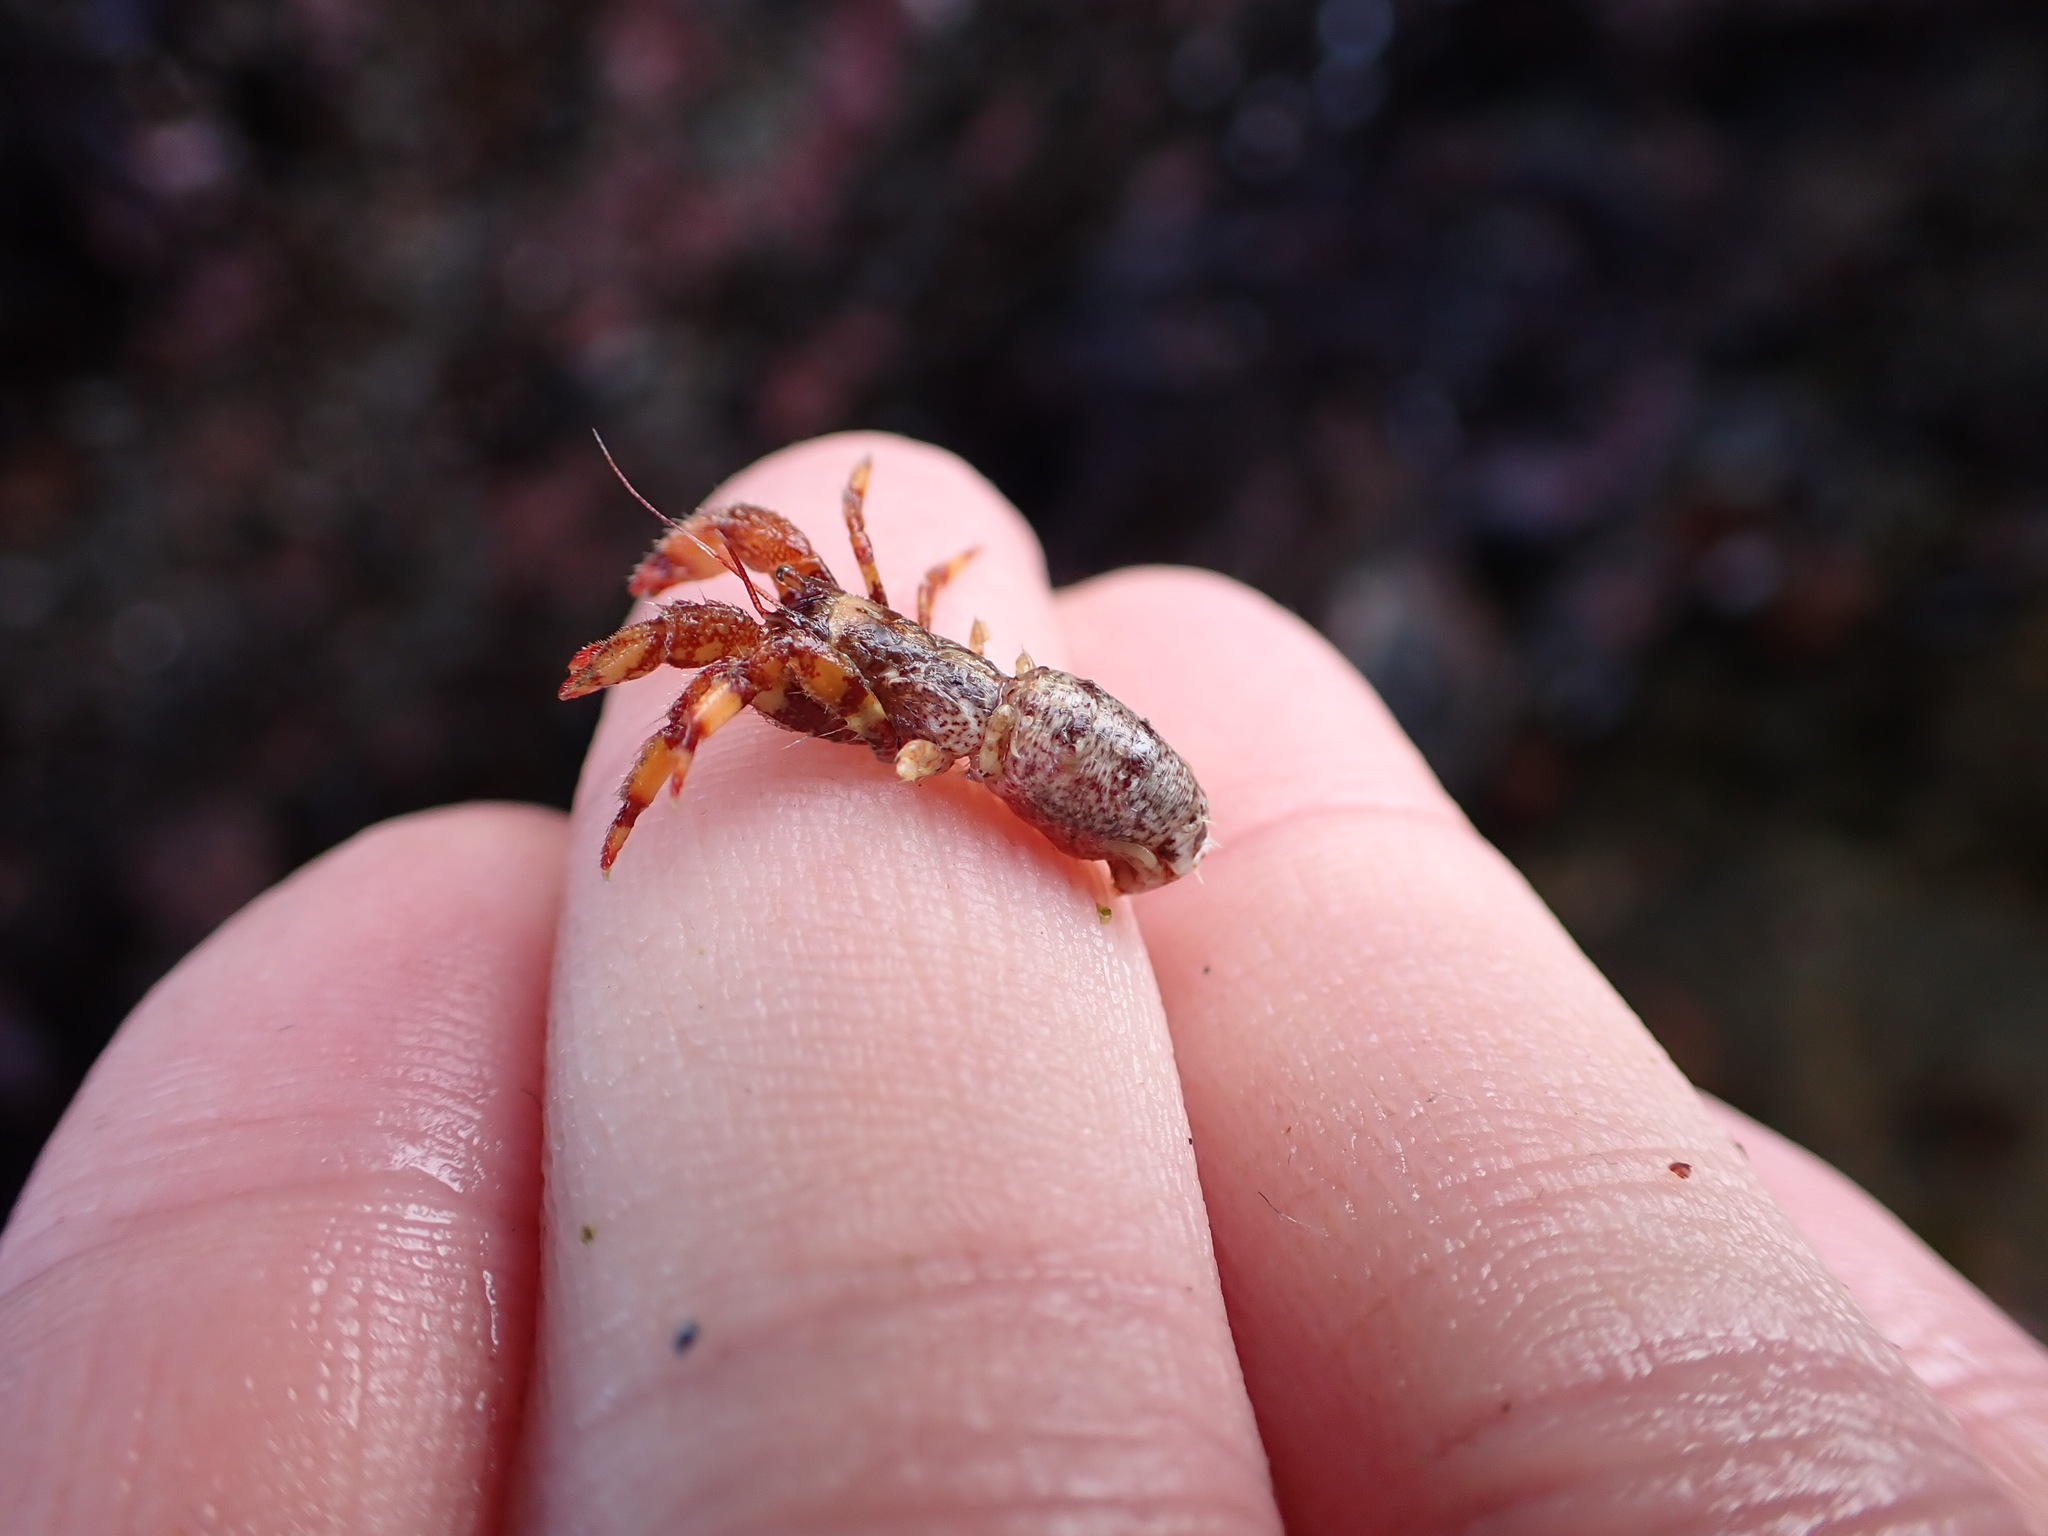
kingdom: Animalia
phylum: Arthropoda
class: Malacostraca
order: Decapoda
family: Paguridae
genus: Discorsopagurus
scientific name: Discorsopagurus schmitti
